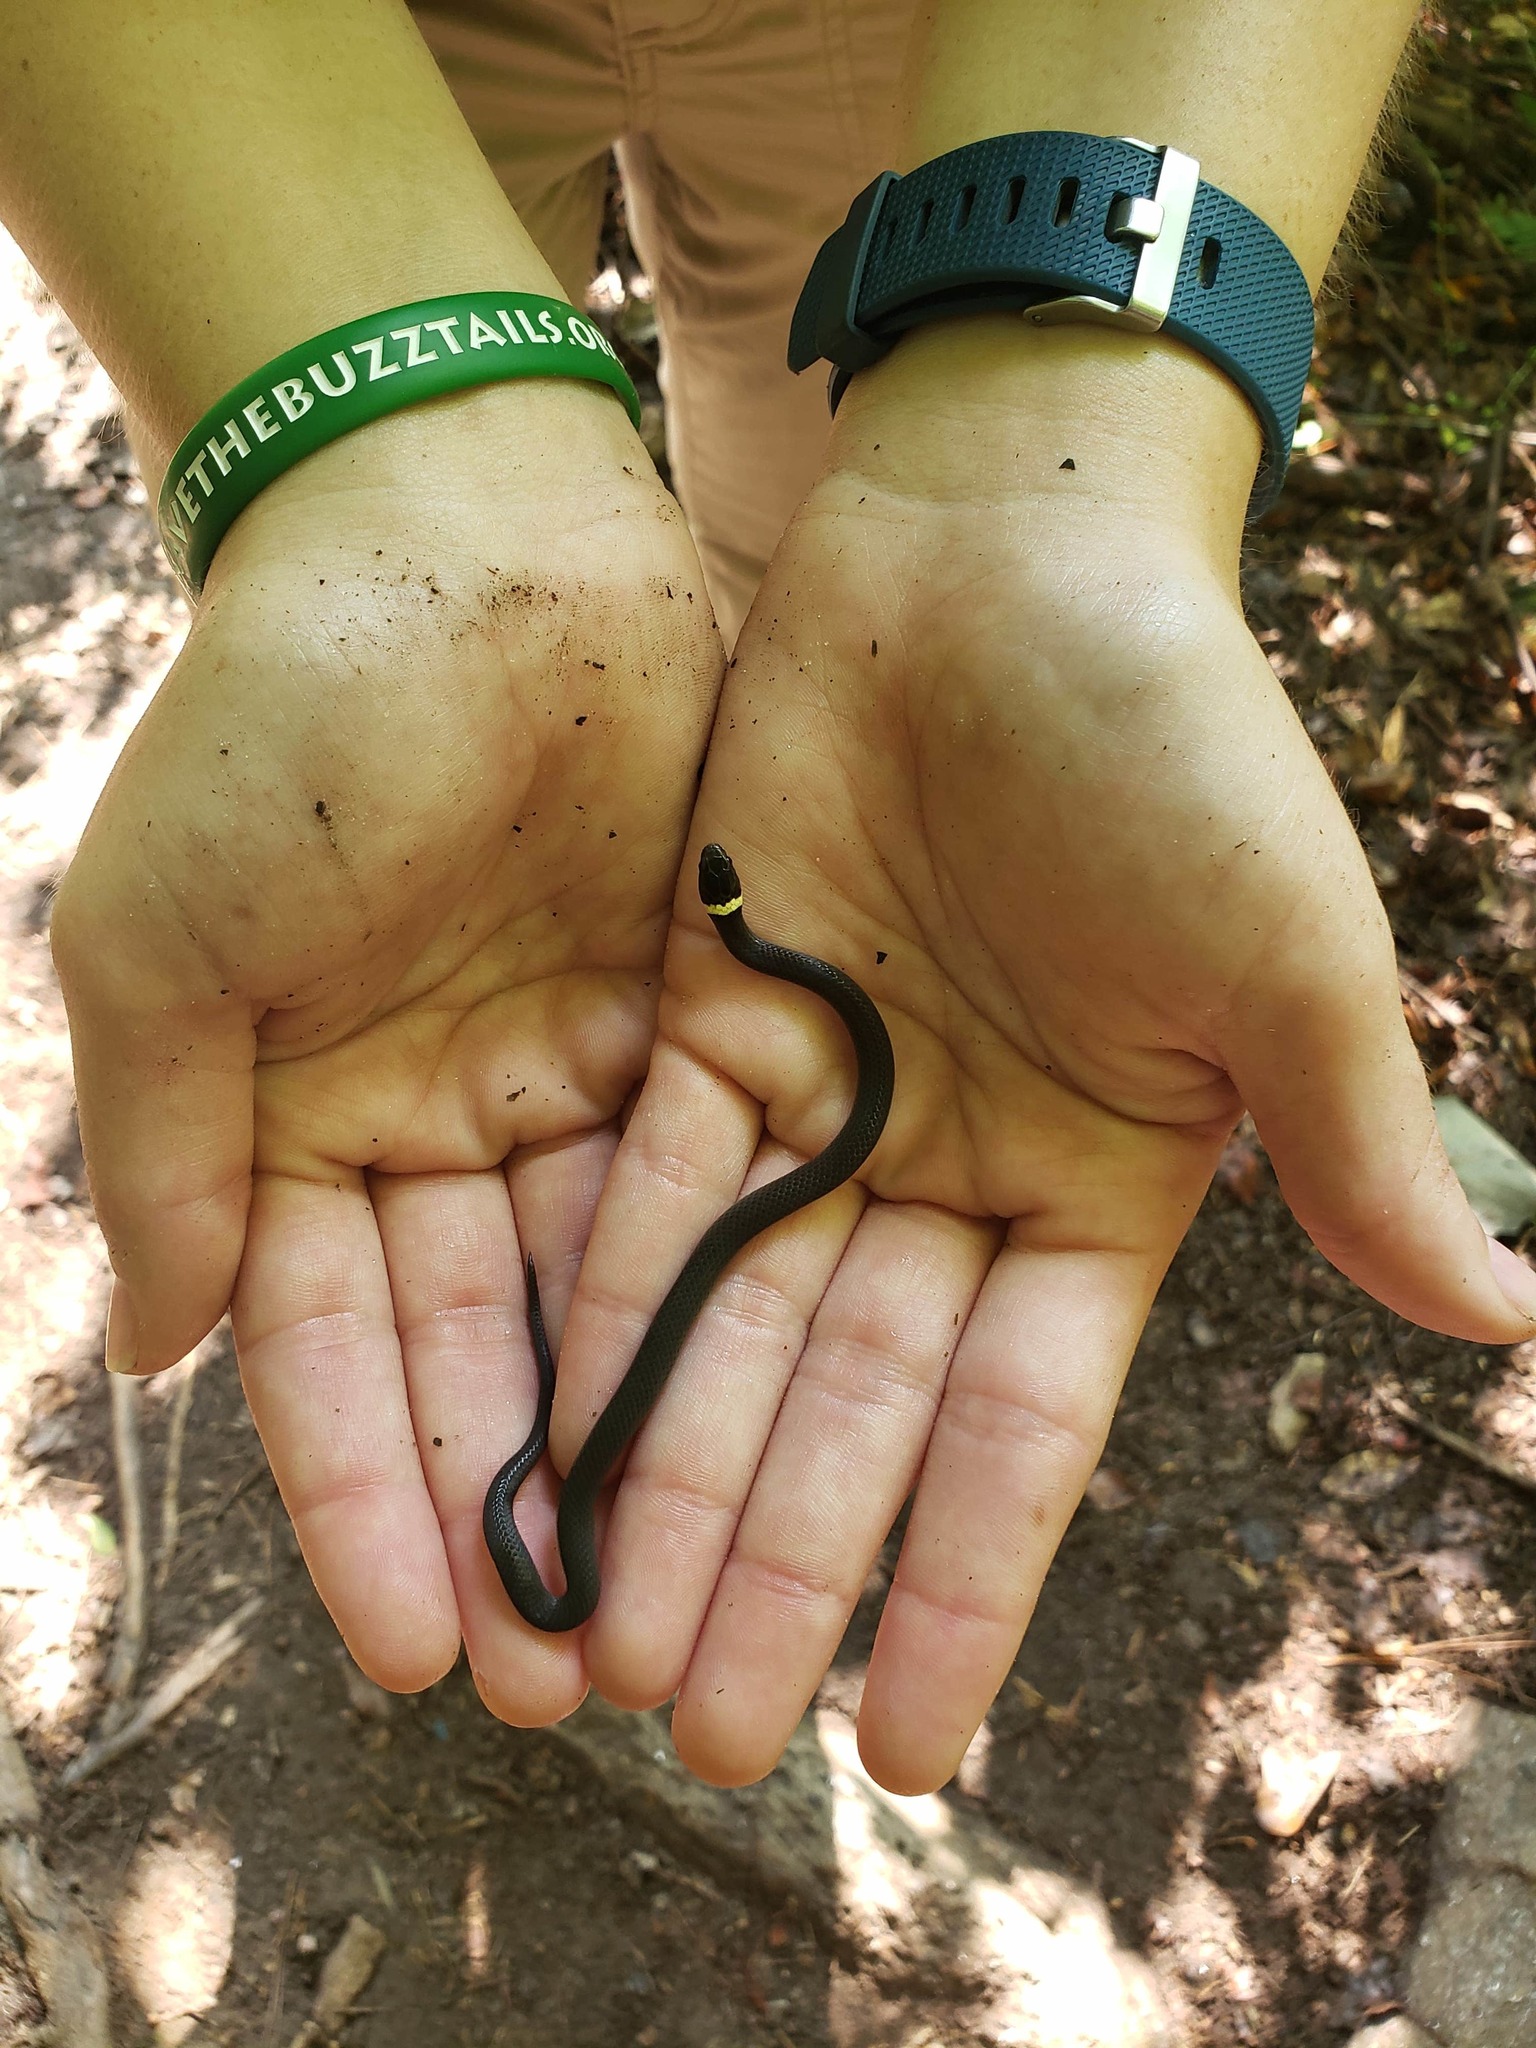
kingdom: Animalia
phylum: Chordata
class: Squamata
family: Colubridae
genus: Diadophis
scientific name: Diadophis punctatus
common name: Ringneck snake
